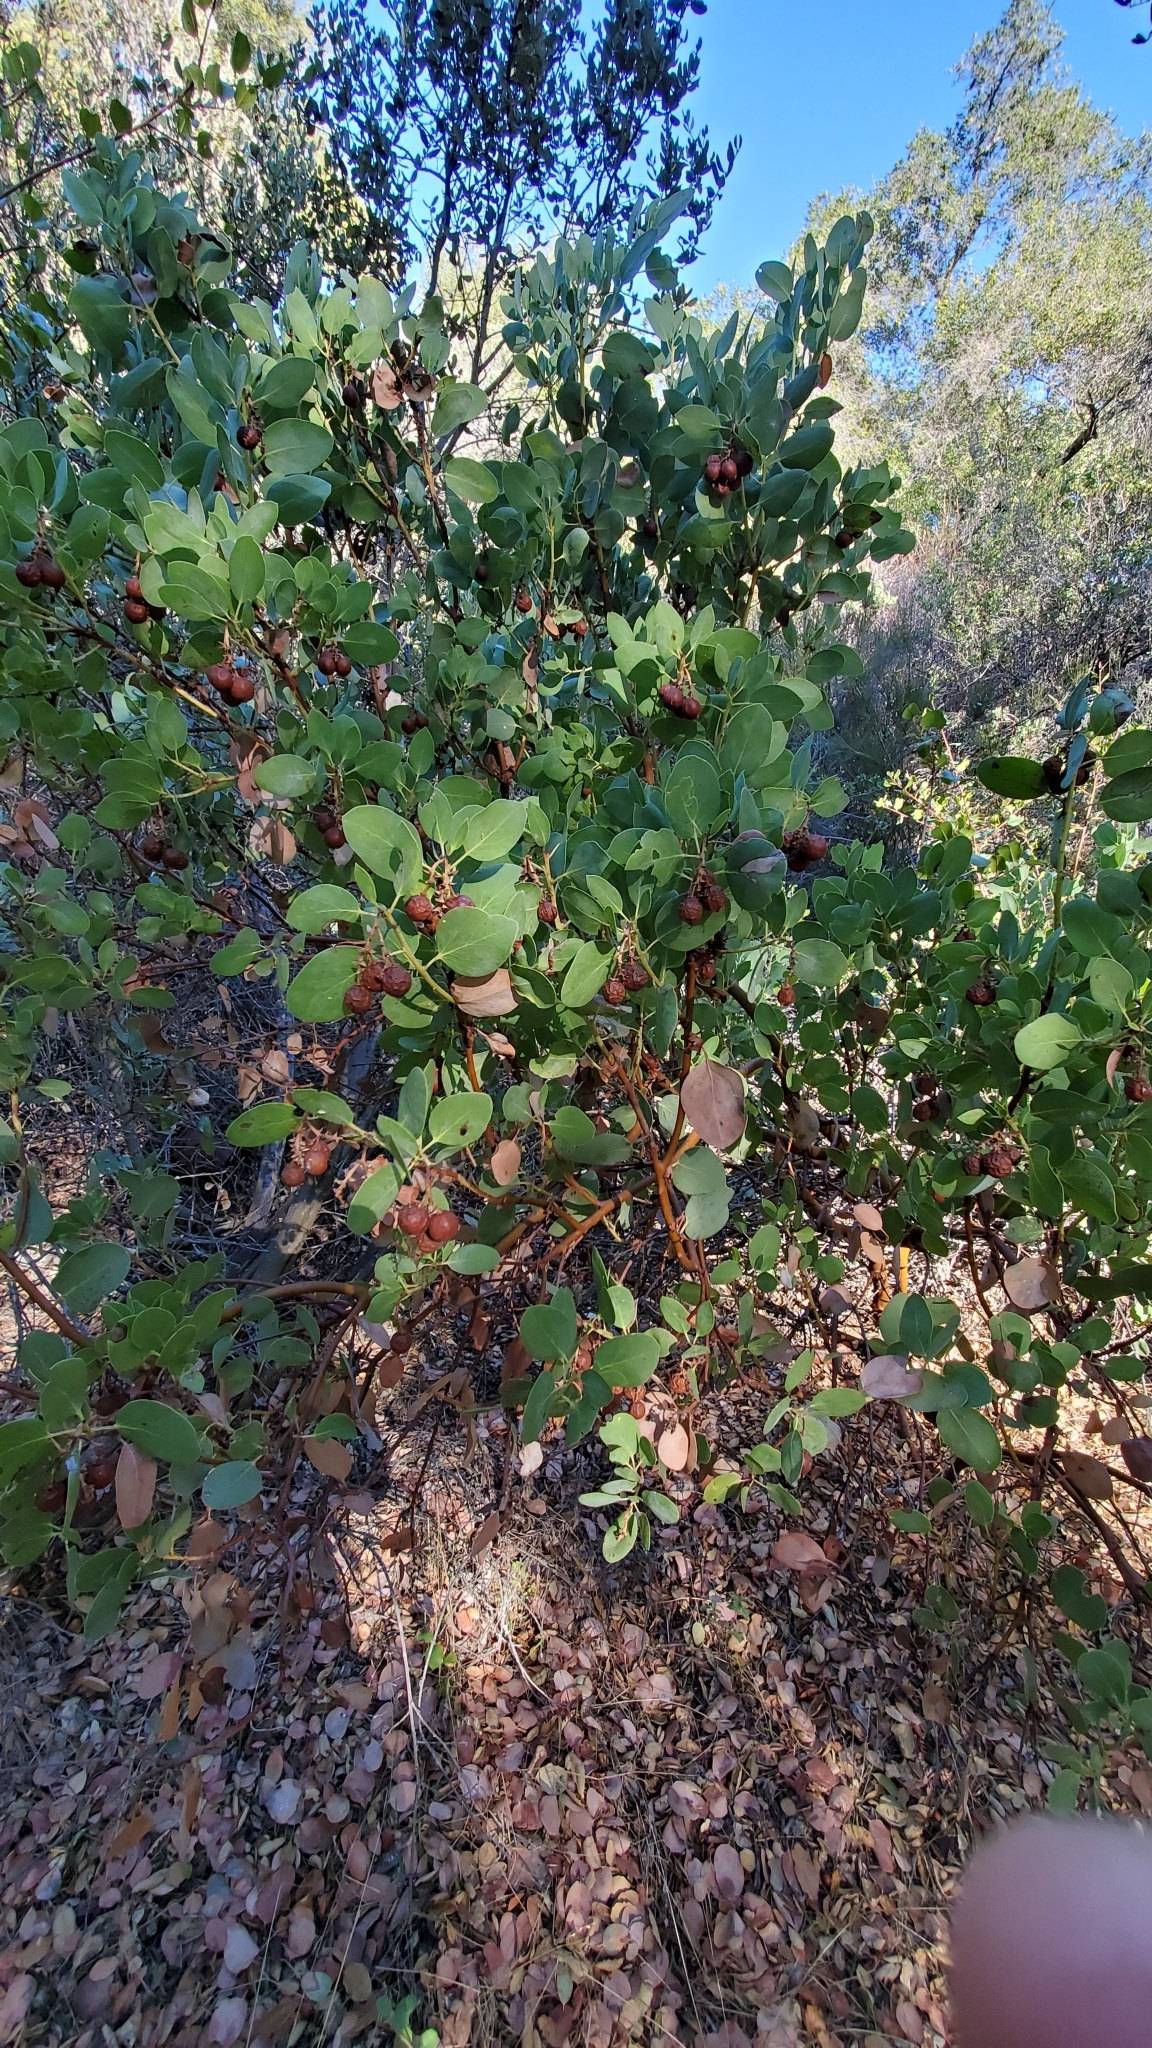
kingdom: Plantae
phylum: Tracheophyta
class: Magnoliopsida
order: Ericales
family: Ericaceae
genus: Arctostaphylos
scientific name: Arctostaphylos glauca
